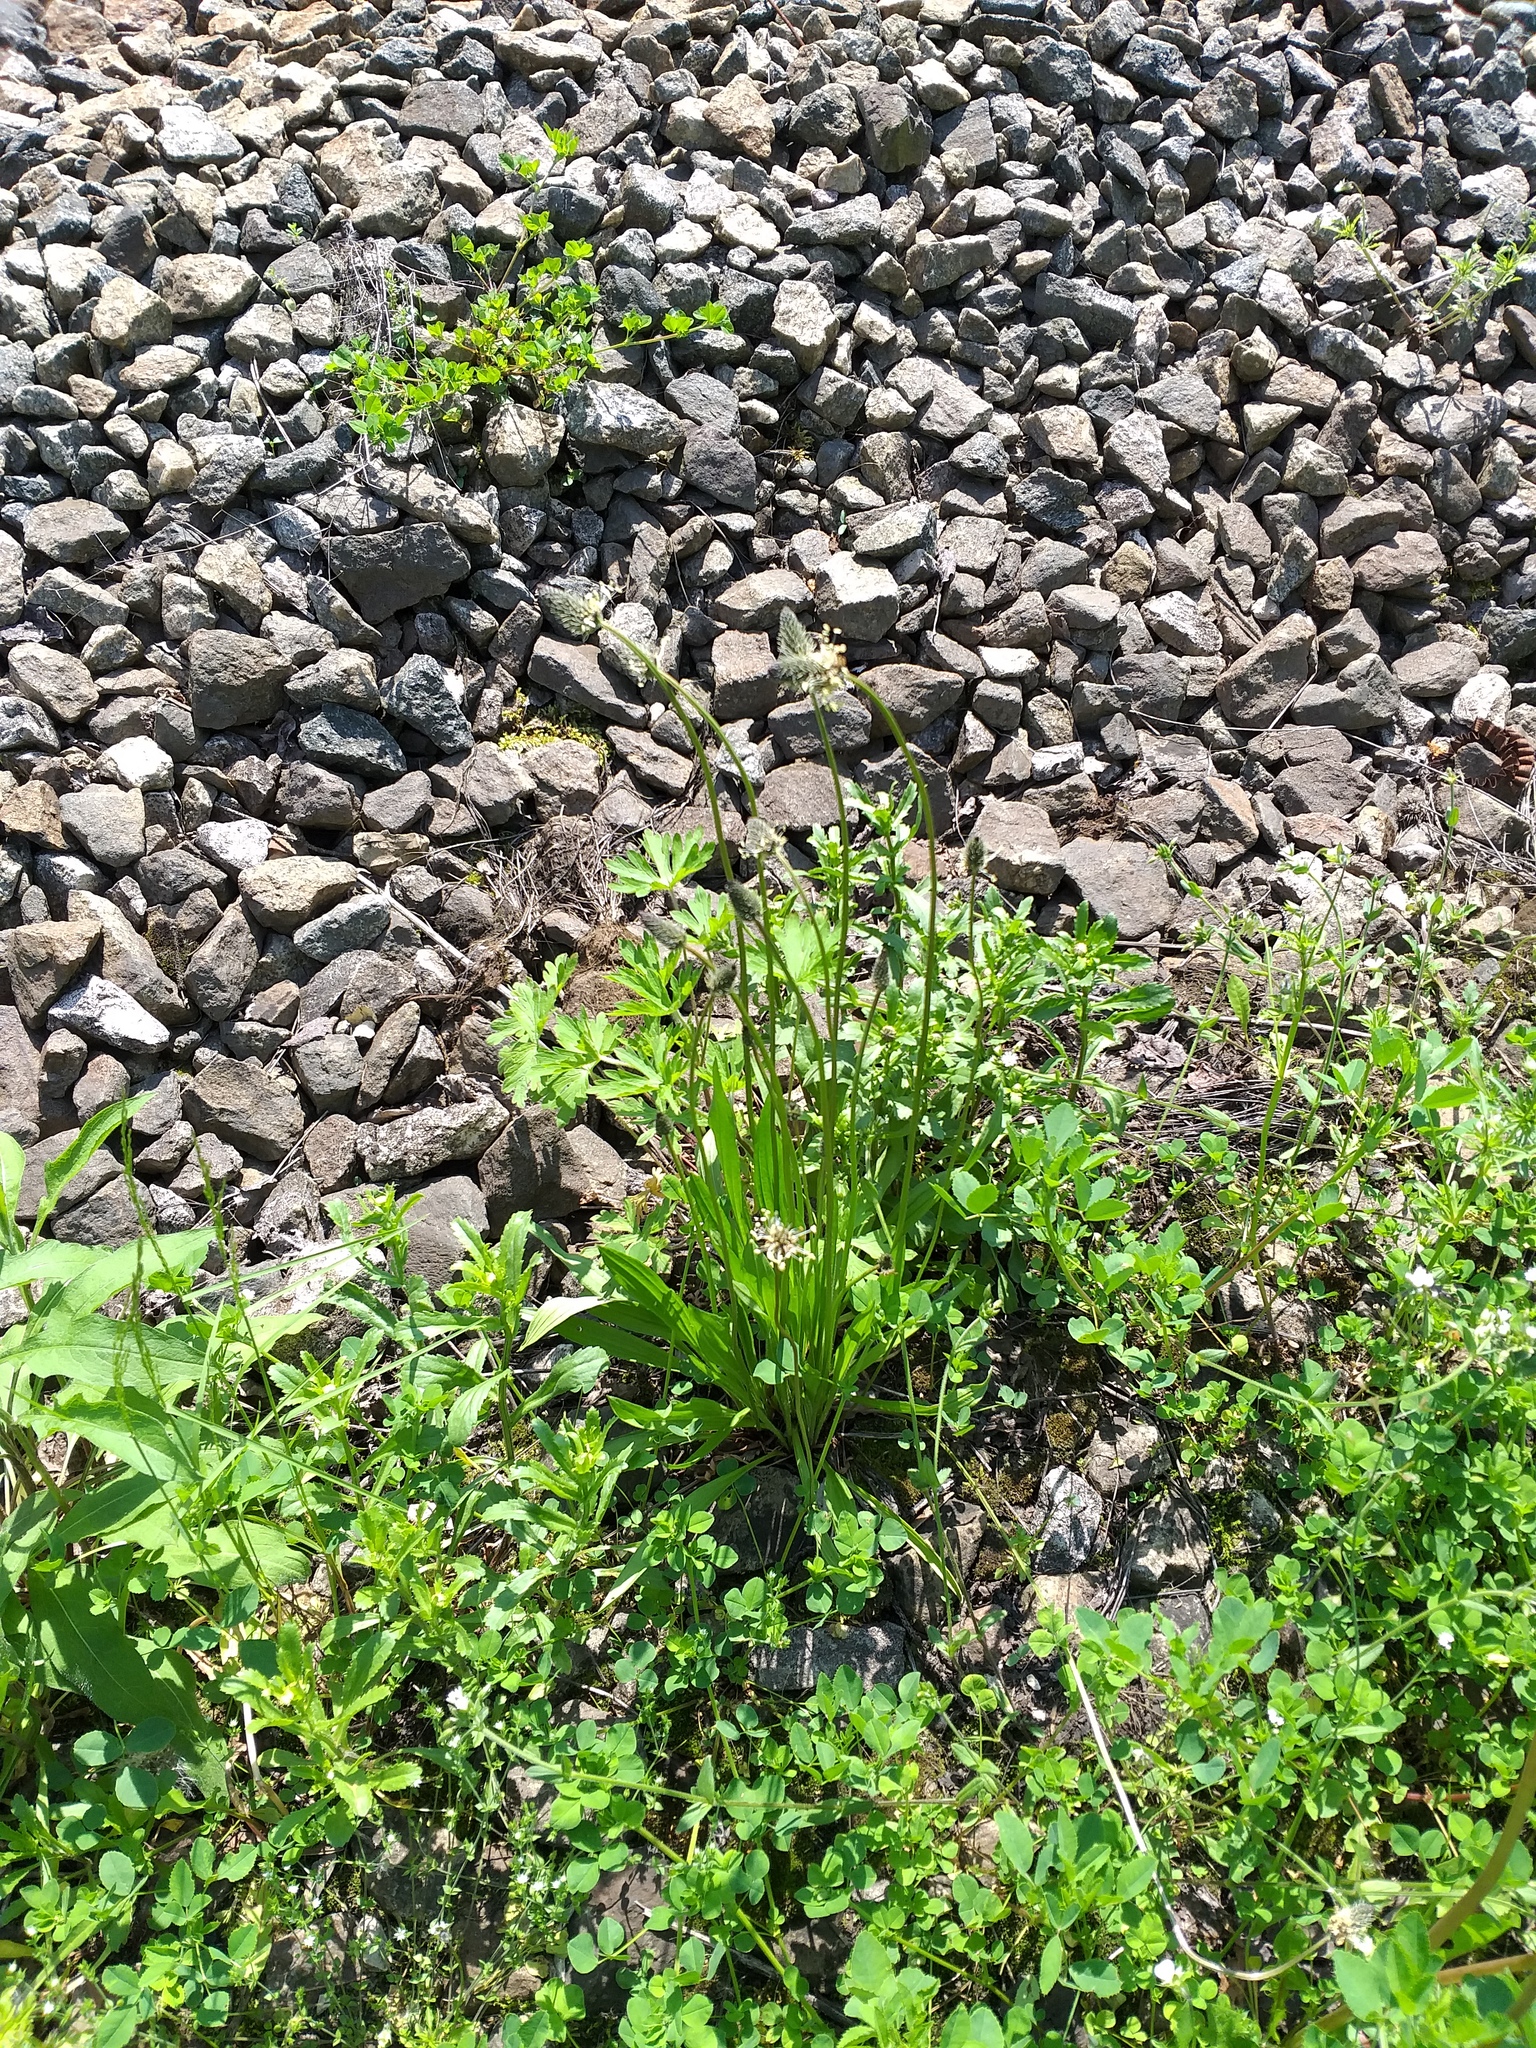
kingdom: Plantae
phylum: Tracheophyta
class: Magnoliopsida
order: Lamiales
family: Plantaginaceae
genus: Plantago
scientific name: Plantago lanceolata
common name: Ribwort plantain
